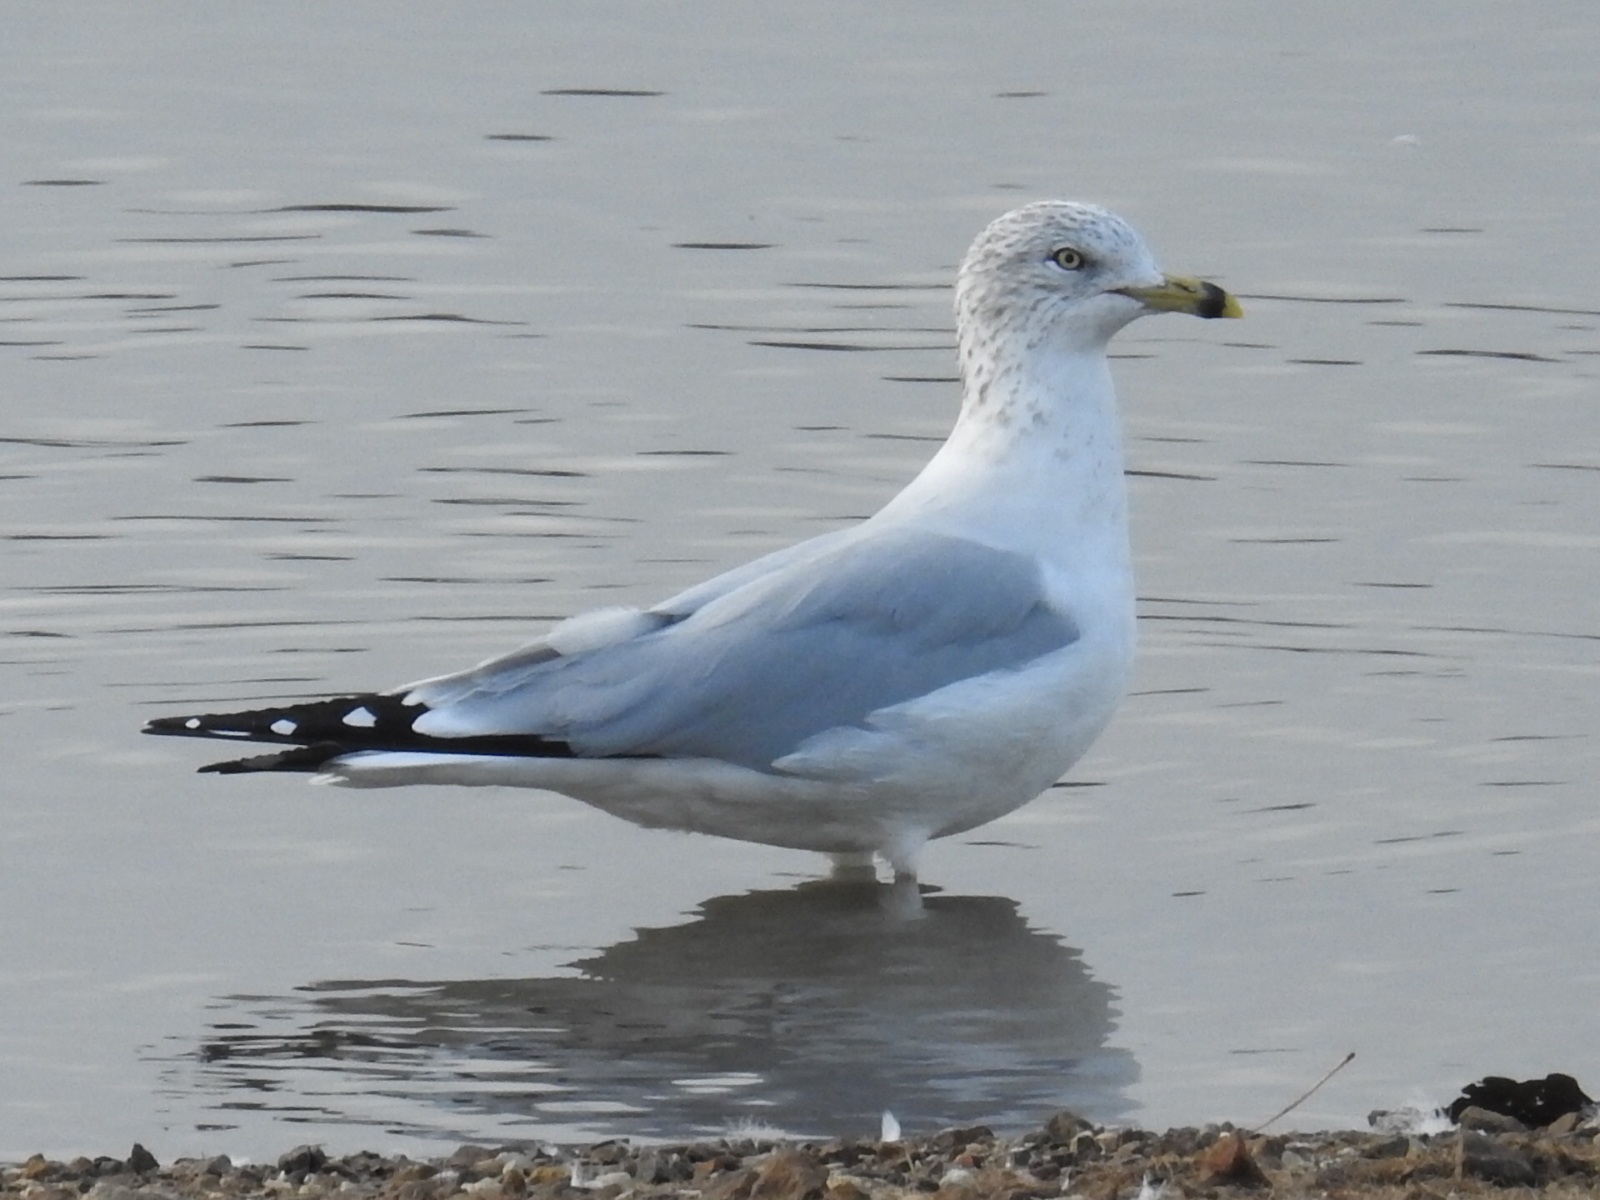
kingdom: Animalia
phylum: Chordata
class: Aves
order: Charadriiformes
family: Laridae
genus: Larus
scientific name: Larus delawarensis
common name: Ring-billed gull
